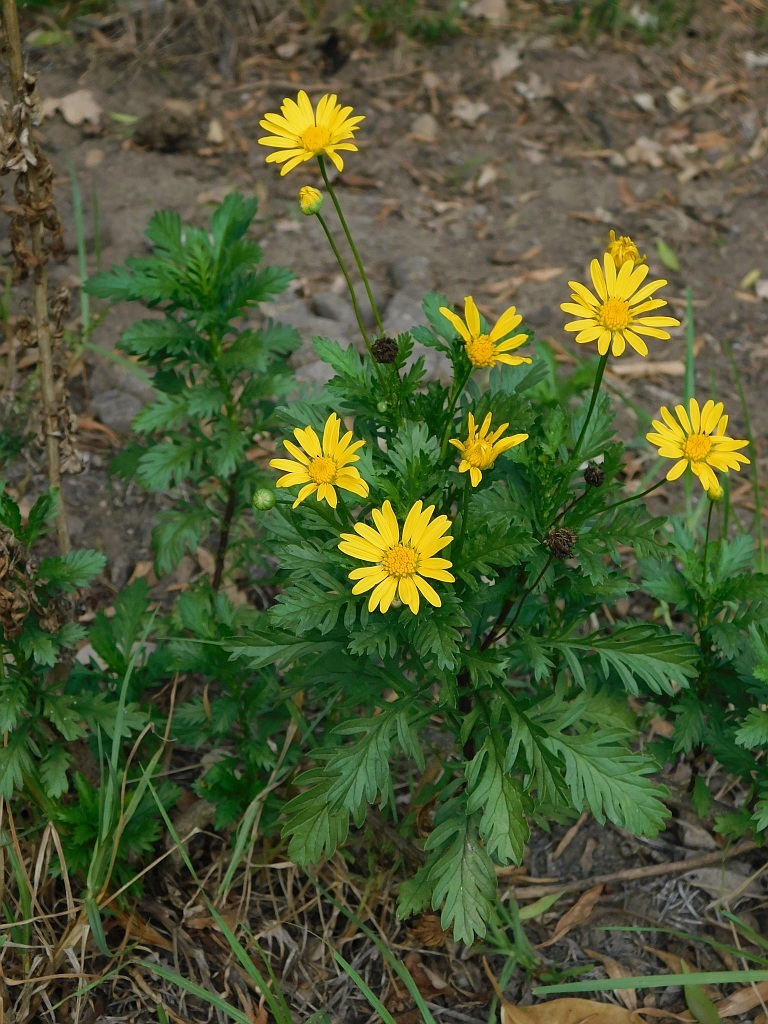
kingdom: Plantae
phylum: Tracheophyta
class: Magnoliopsida
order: Asterales
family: Asteraceae
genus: Euryops
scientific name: Euryops chrysanthemoides
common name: Bull's eye
